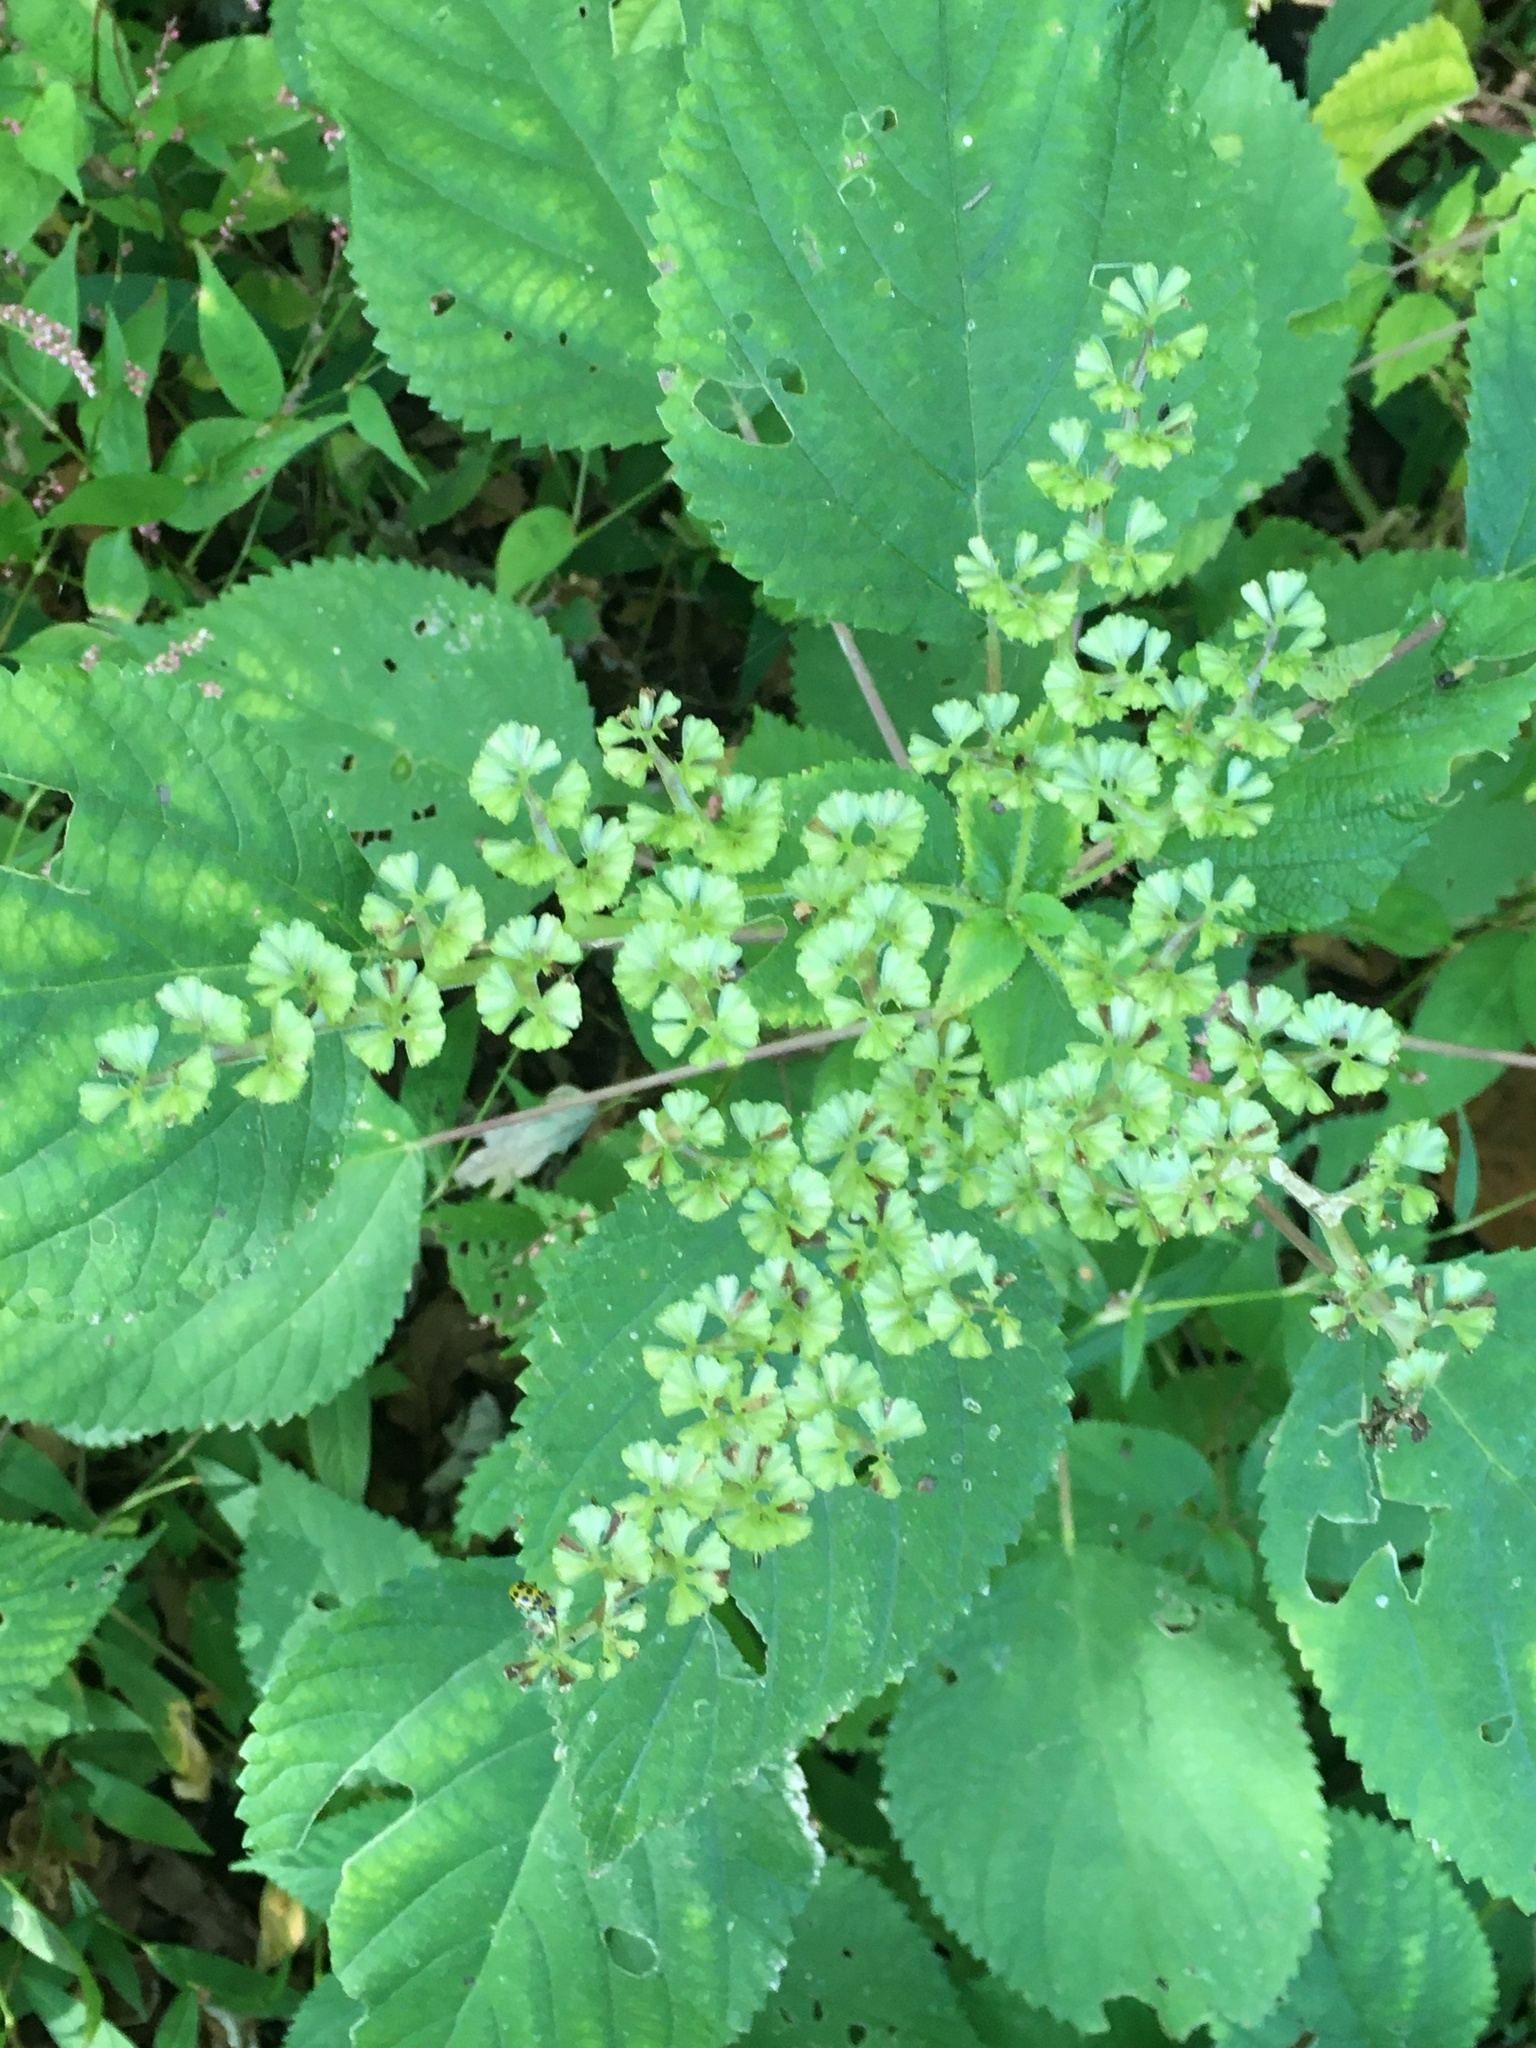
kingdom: Plantae
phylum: Tracheophyta
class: Magnoliopsida
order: Rosales
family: Urticaceae
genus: Laportea
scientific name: Laportea canadensis
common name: Canada nettle
